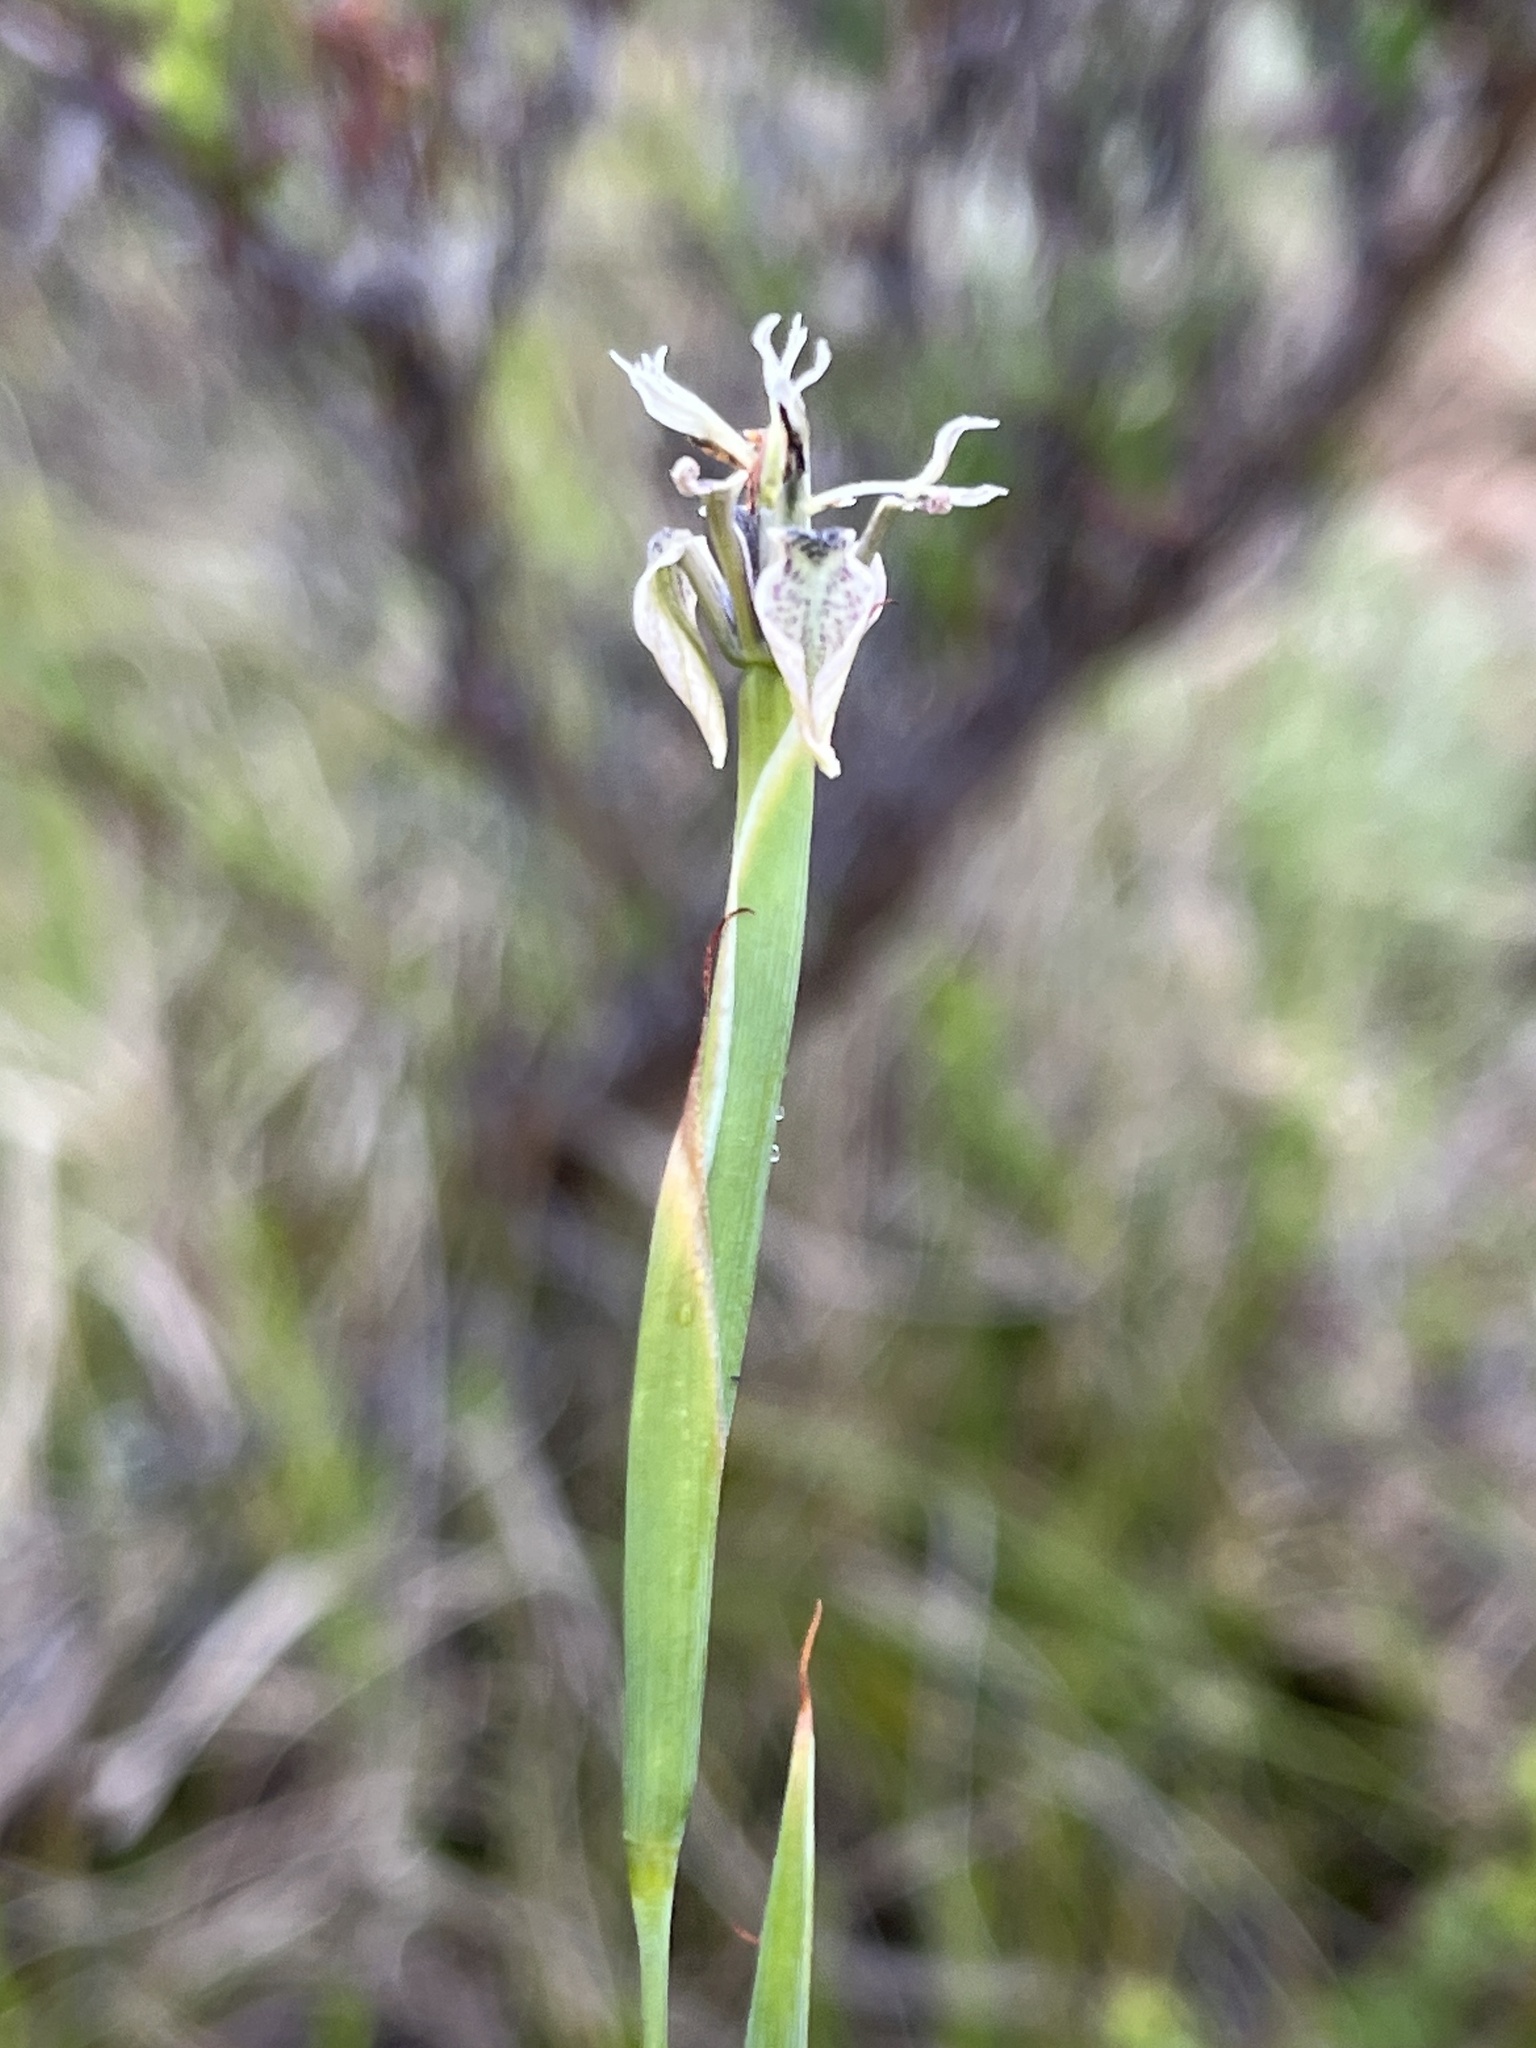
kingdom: Plantae
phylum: Tracheophyta
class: Liliopsida
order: Asparagales
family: Iridaceae
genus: Moraea
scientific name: Moraea unguiculata
